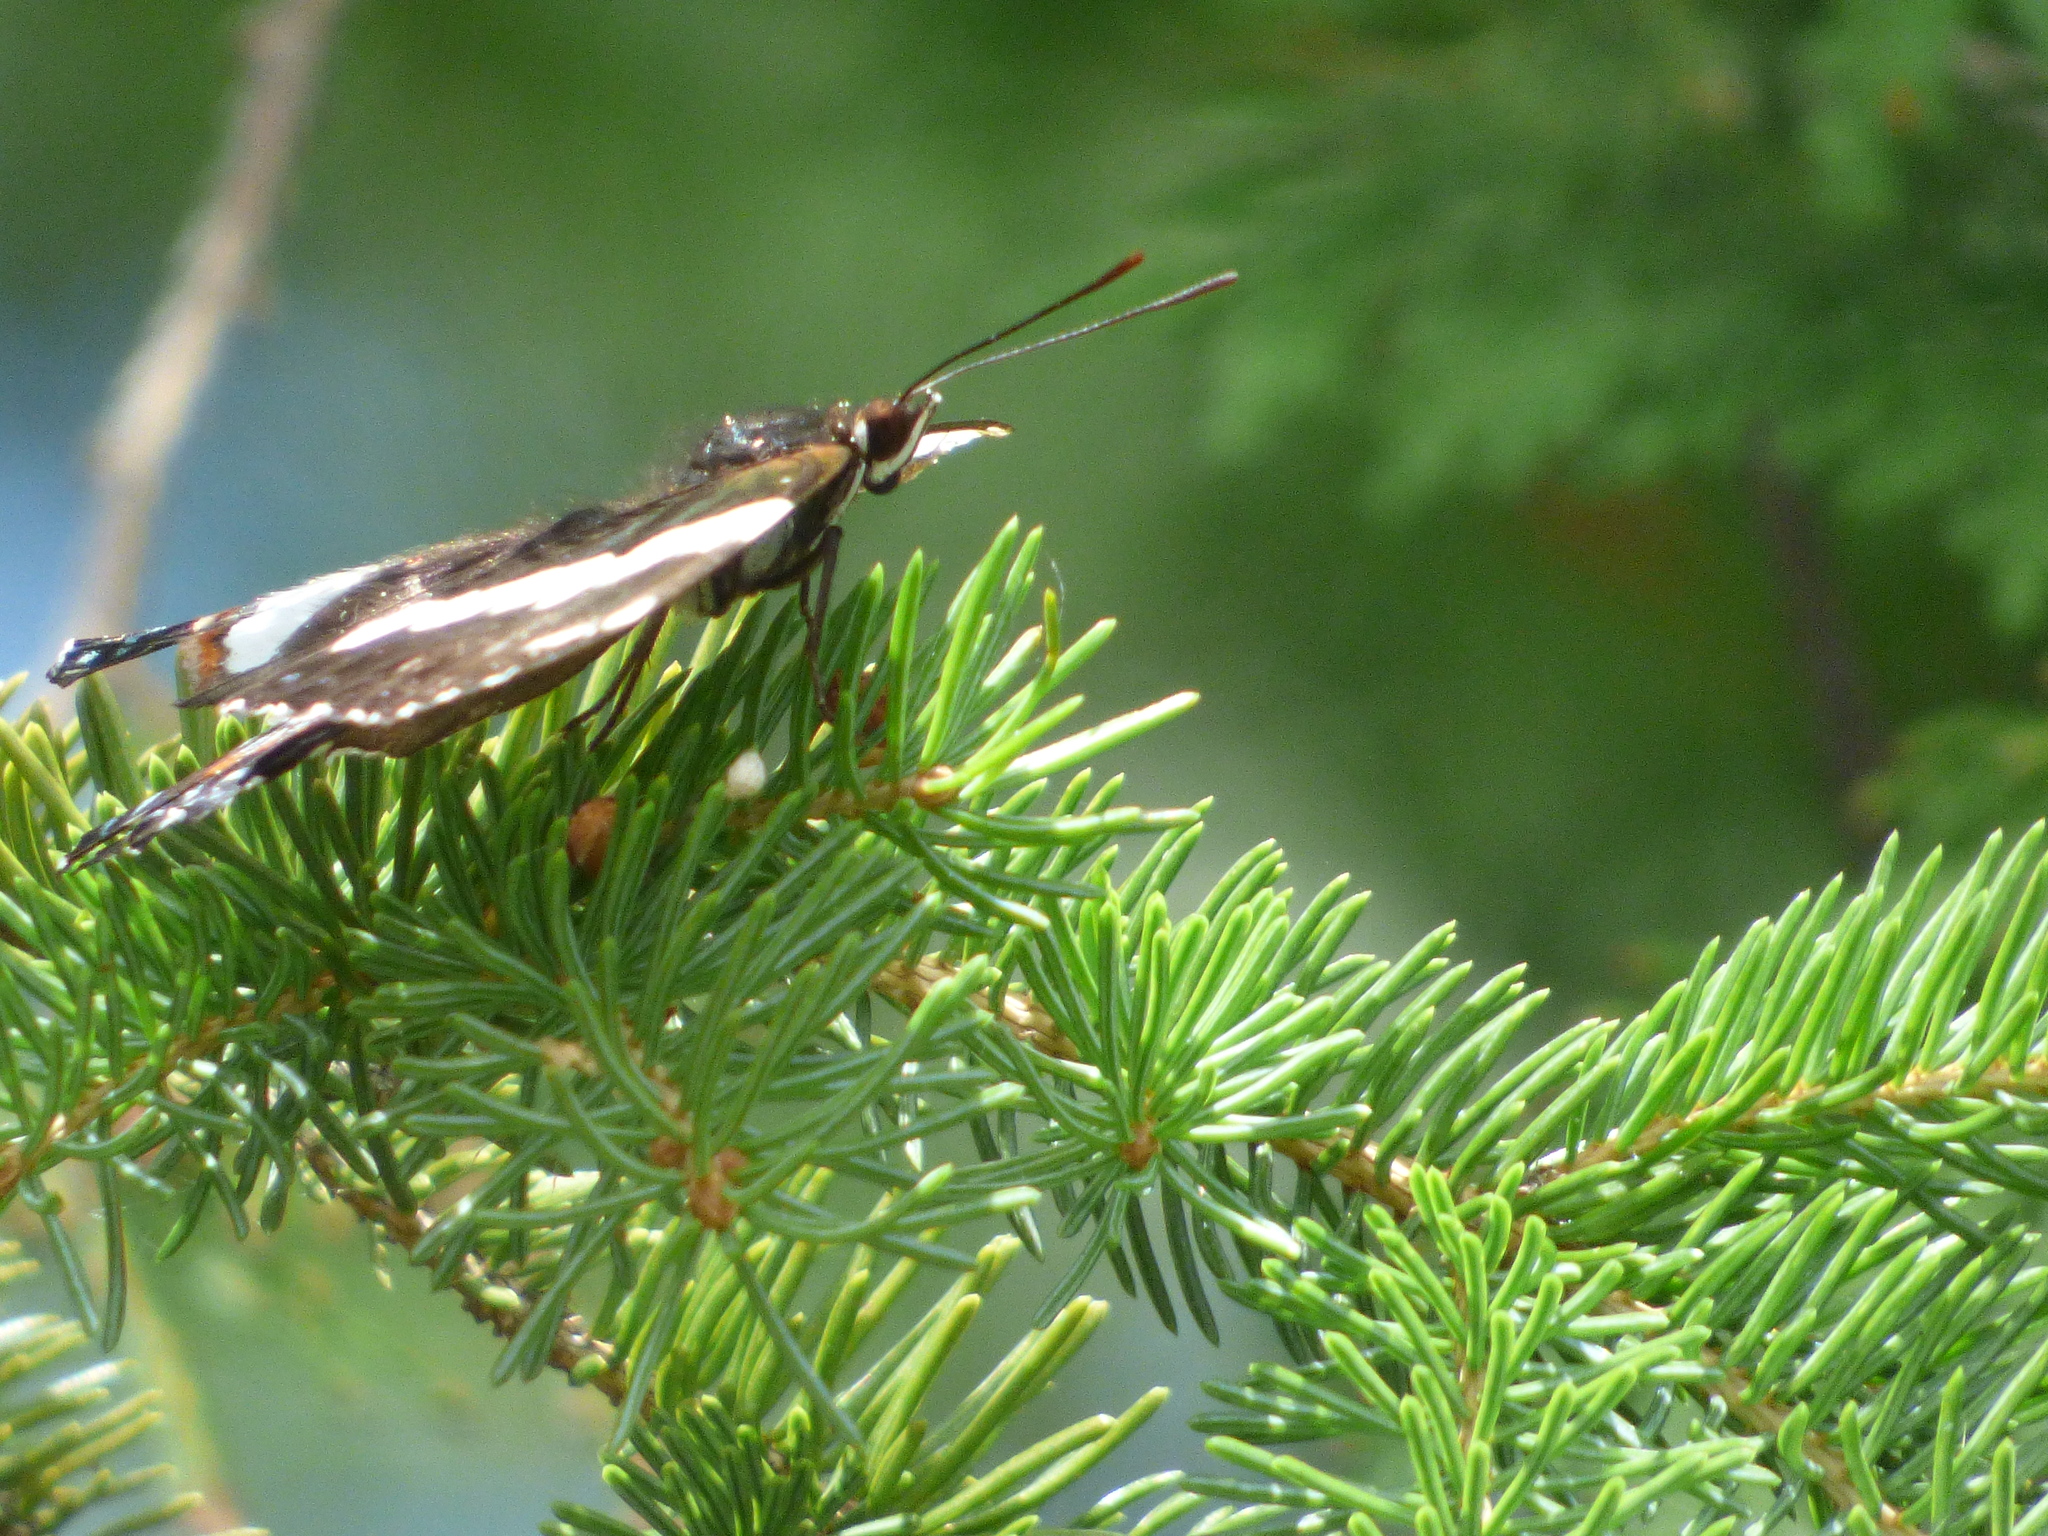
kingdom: Animalia
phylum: Arthropoda
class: Insecta
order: Lepidoptera
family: Nymphalidae
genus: Limenitis
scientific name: Limenitis arthemis
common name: Red-spotted admiral
